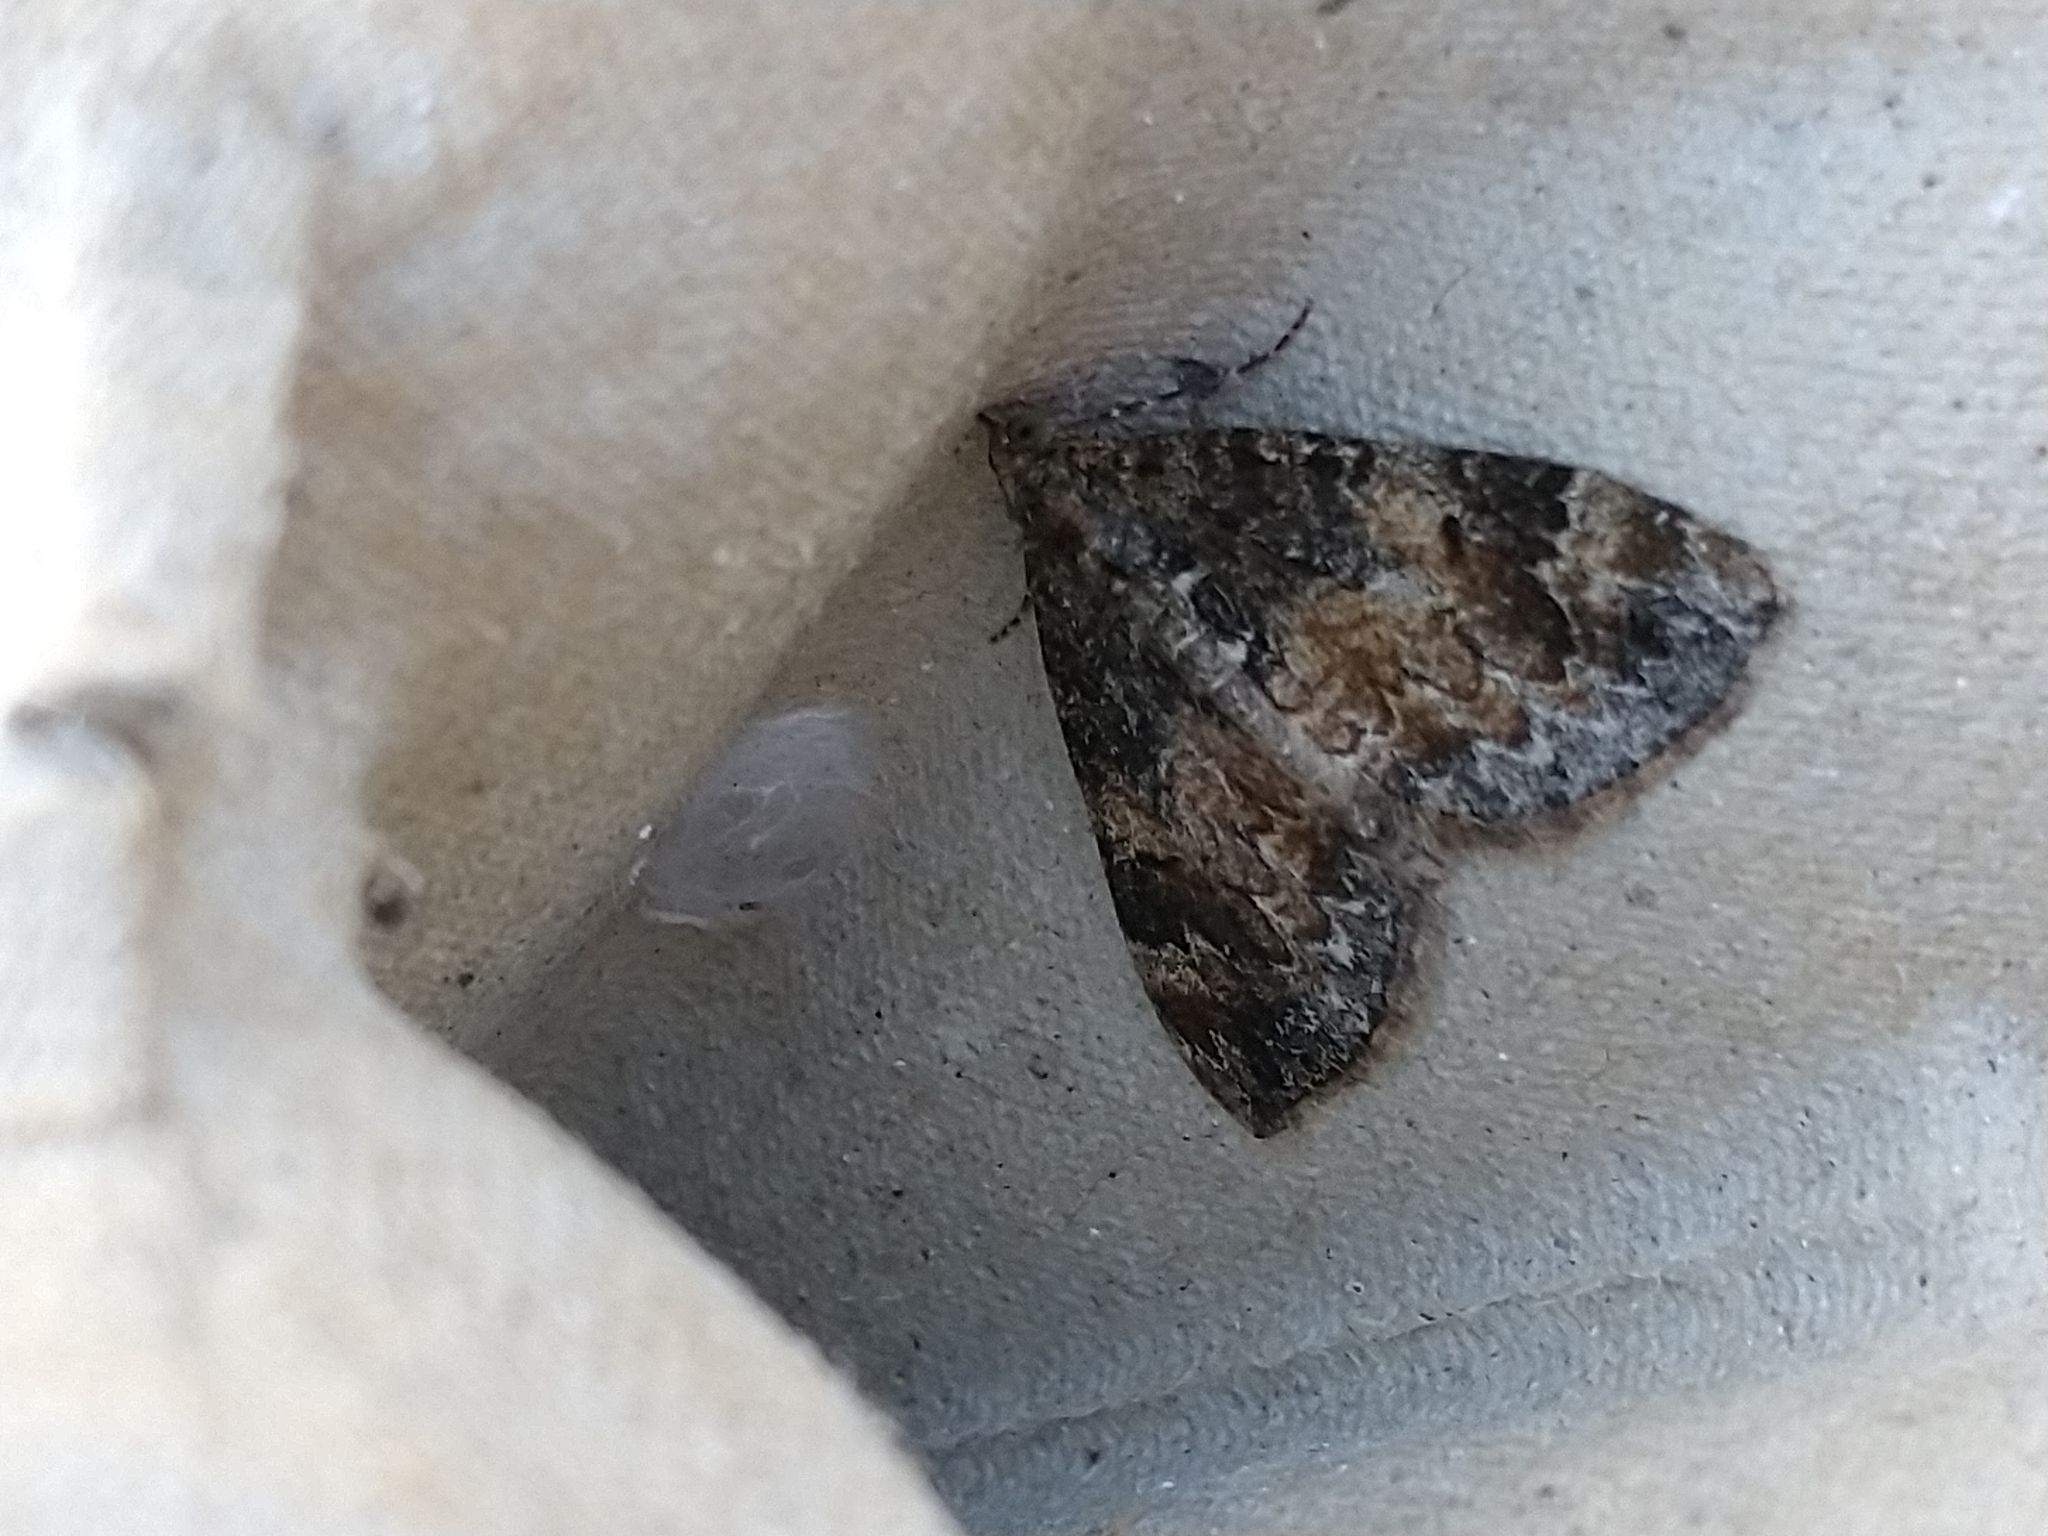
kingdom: Animalia
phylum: Arthropoda
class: Insecta
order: Lepidoptera
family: Geometridae
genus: Dysstroma
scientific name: Dysstroma truncata
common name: Common marbled carpet
